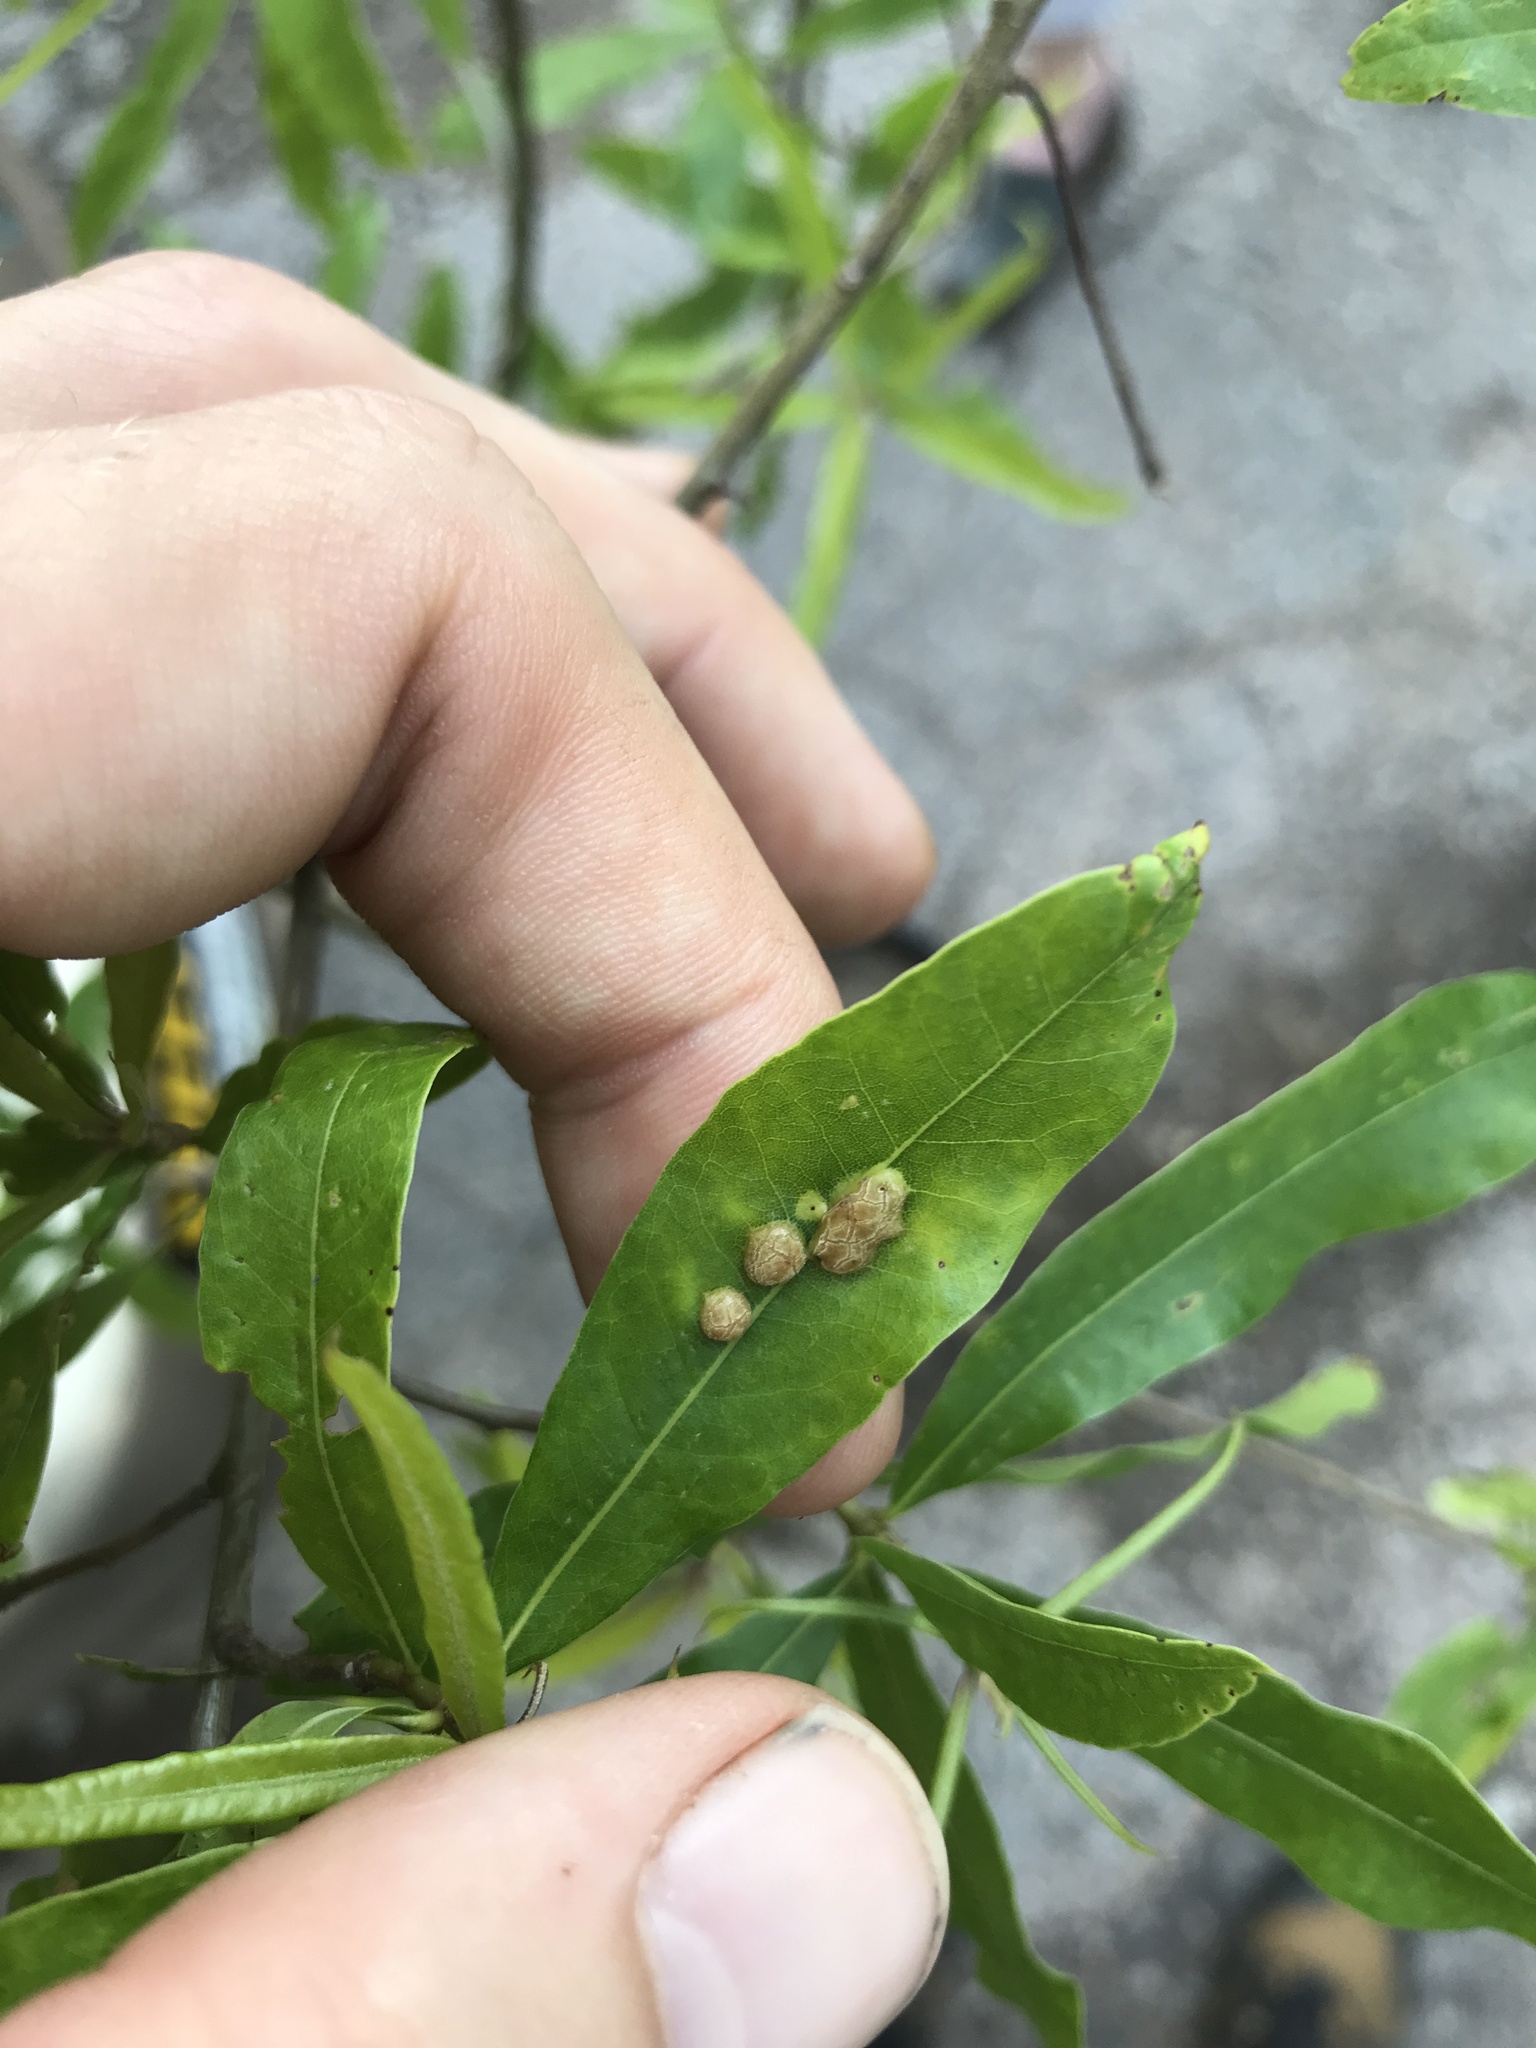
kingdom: Animalia
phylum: Arthropoda
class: Insecta
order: Diptera
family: Cecidomyiidae
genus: Polystepha
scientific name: Polystepha pilulae
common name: Oak leaf gall midge
